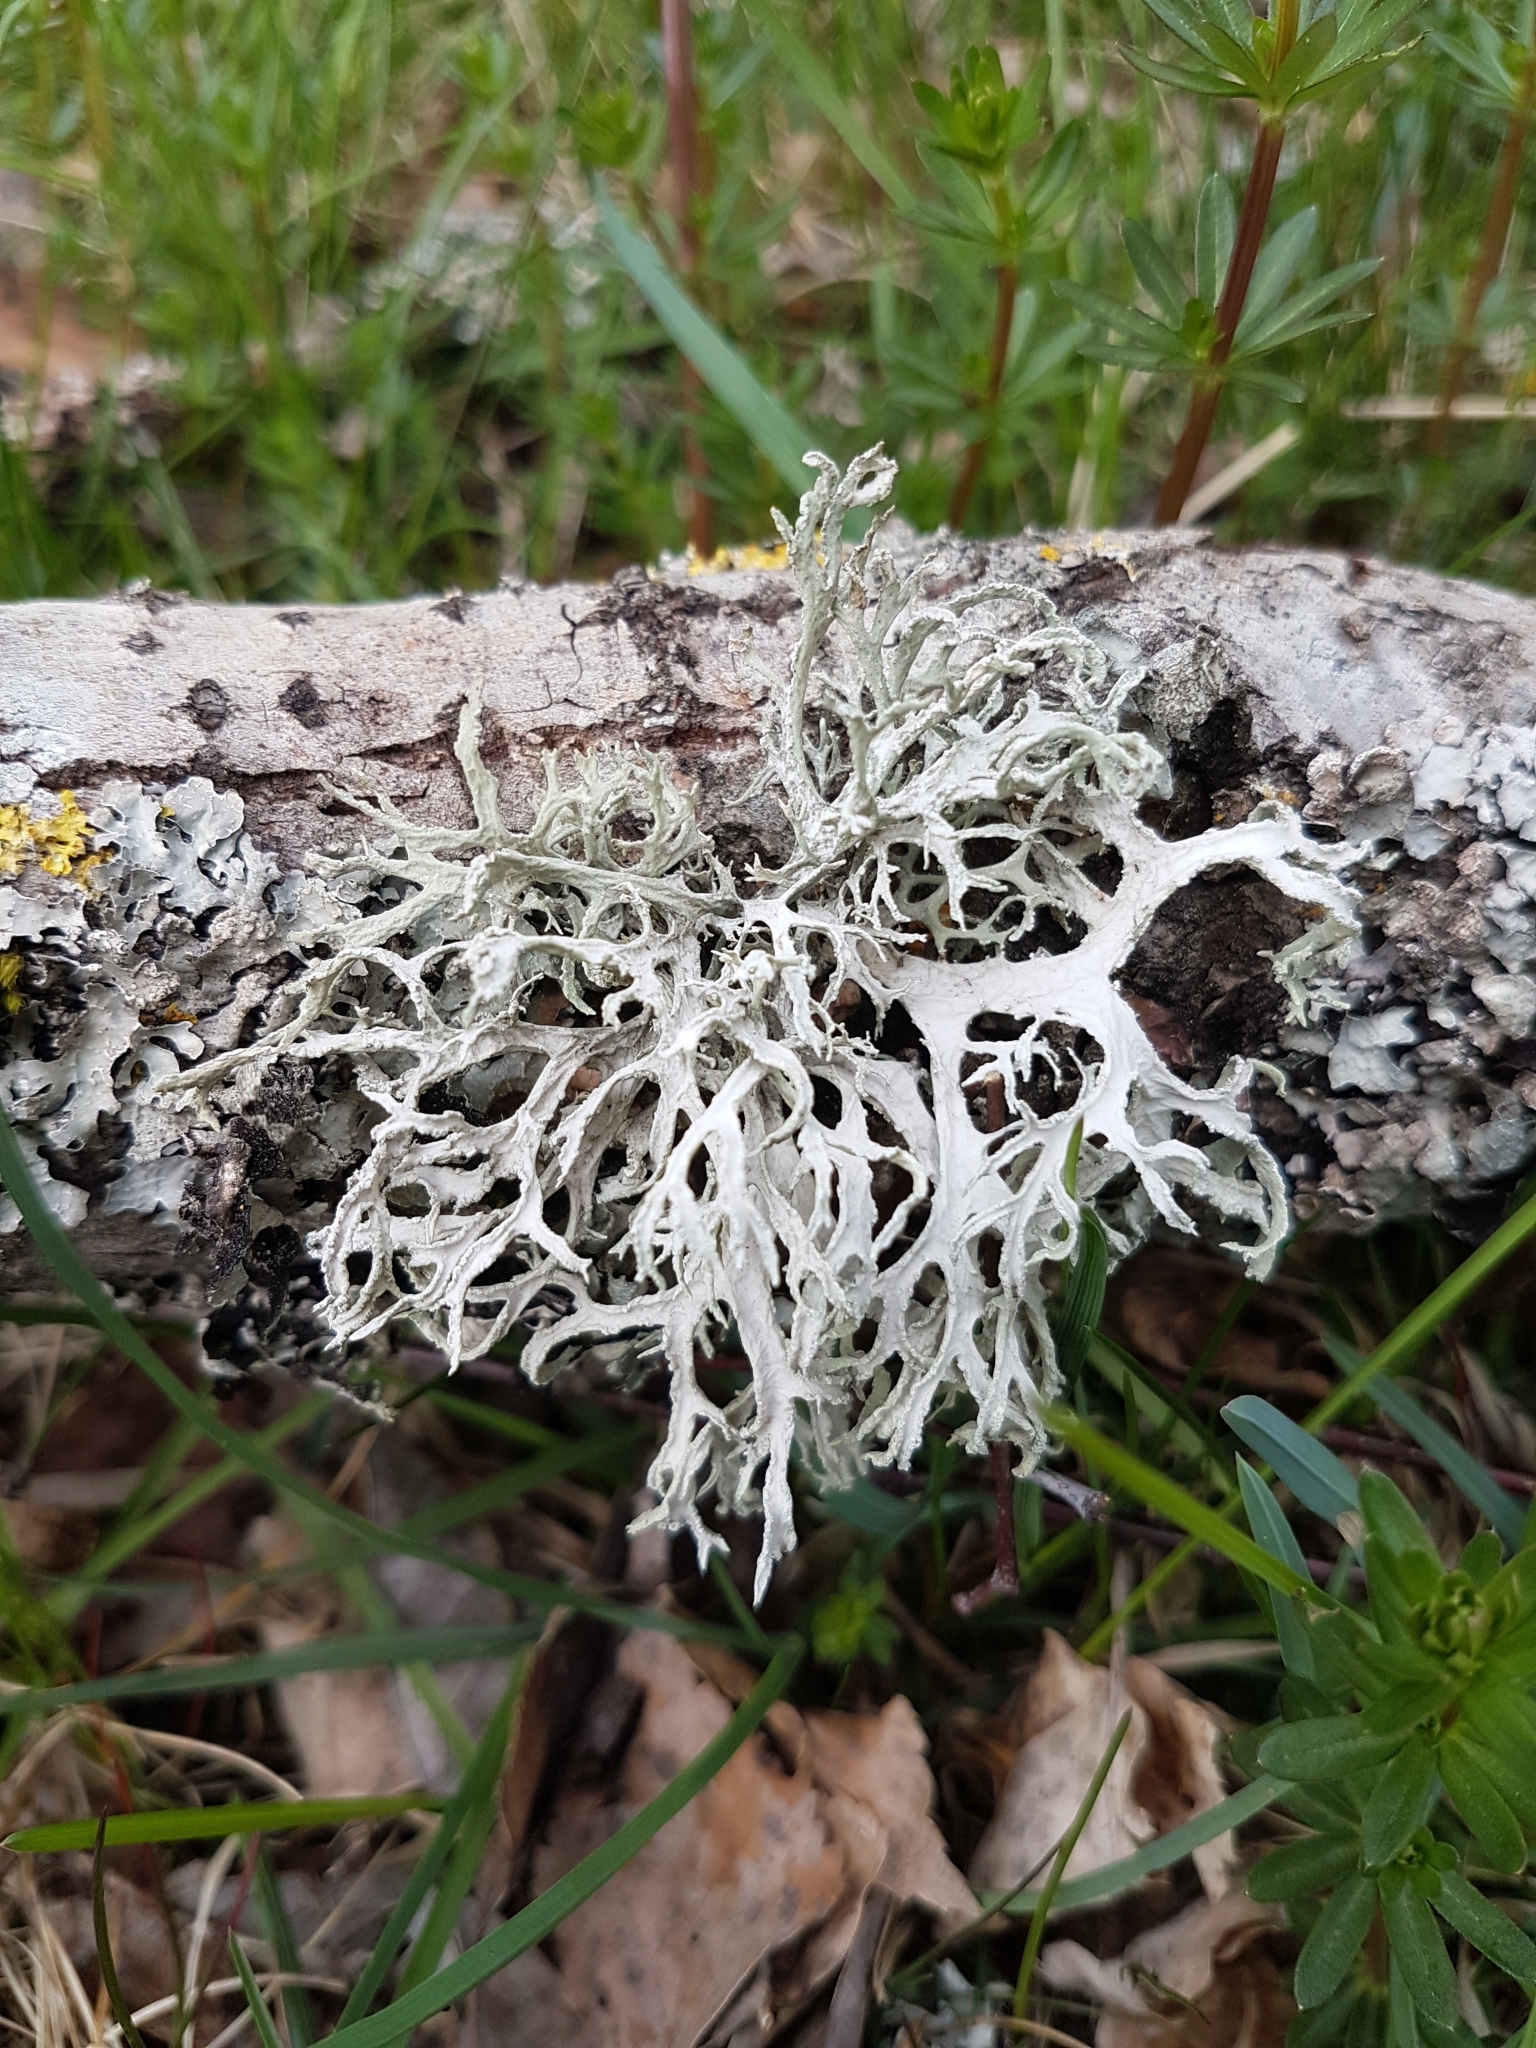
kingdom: Fungi
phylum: Ascomycota
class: Lecanoromycetes
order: Lecanorales
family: Parmeliaceae
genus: Evernia
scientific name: Evernia prunastri
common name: Oak moss
